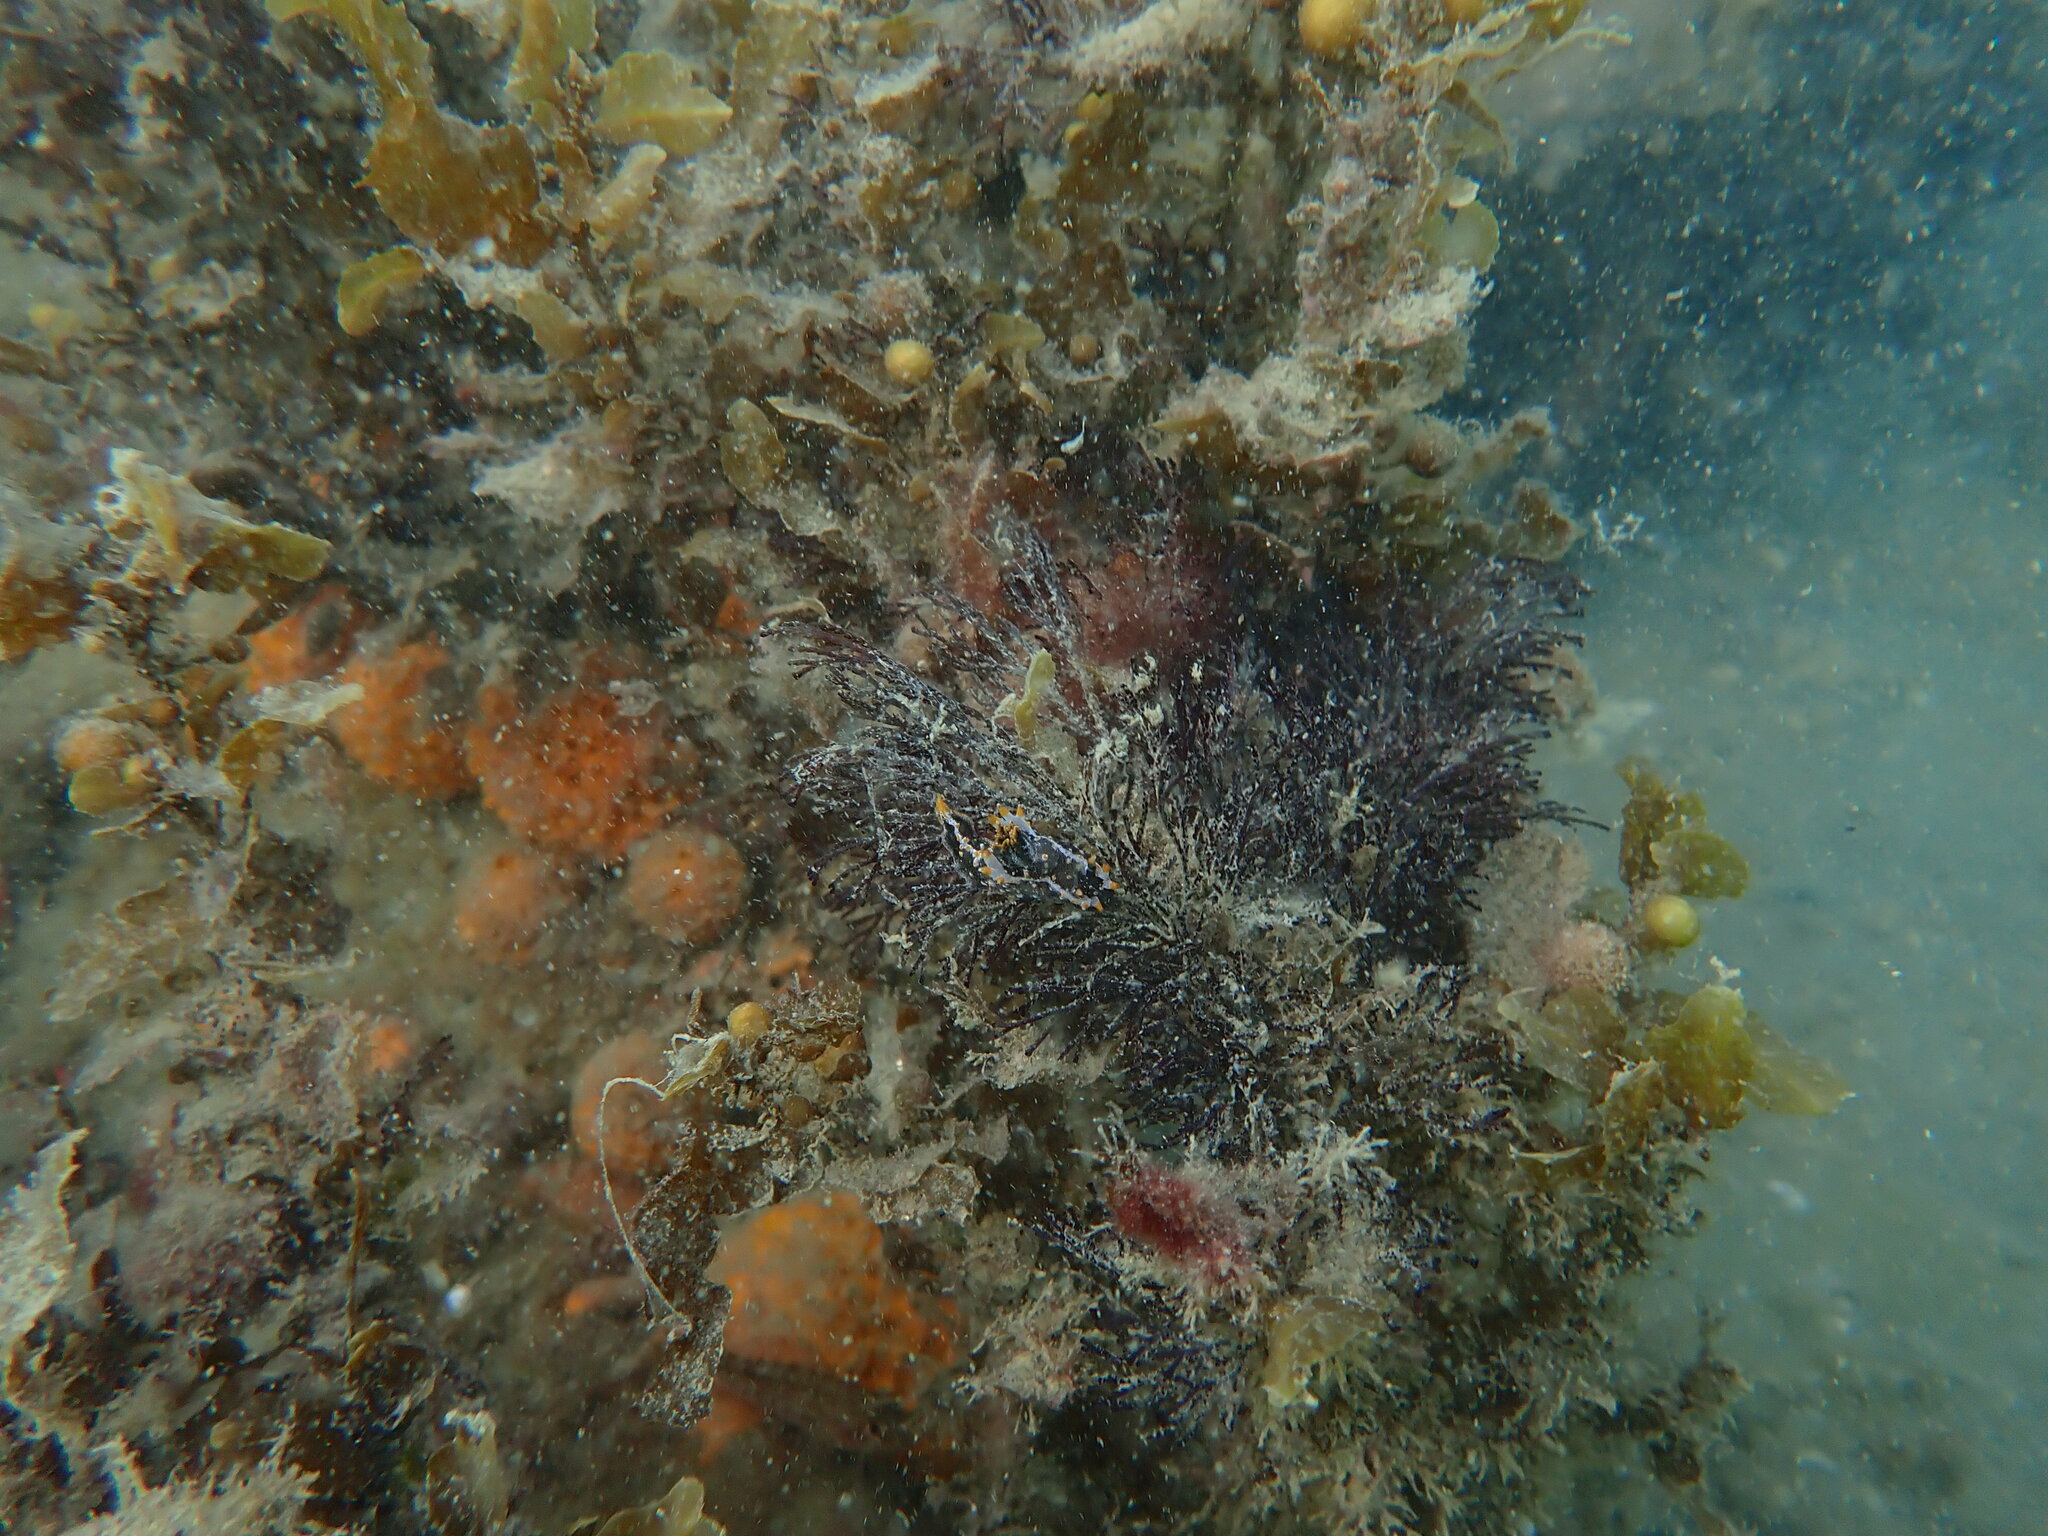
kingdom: Animalia
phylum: Mollusca
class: Gastropoda
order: Nudibranchia
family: Polyceridae
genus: Polycera
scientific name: Polycera hedgpethi
